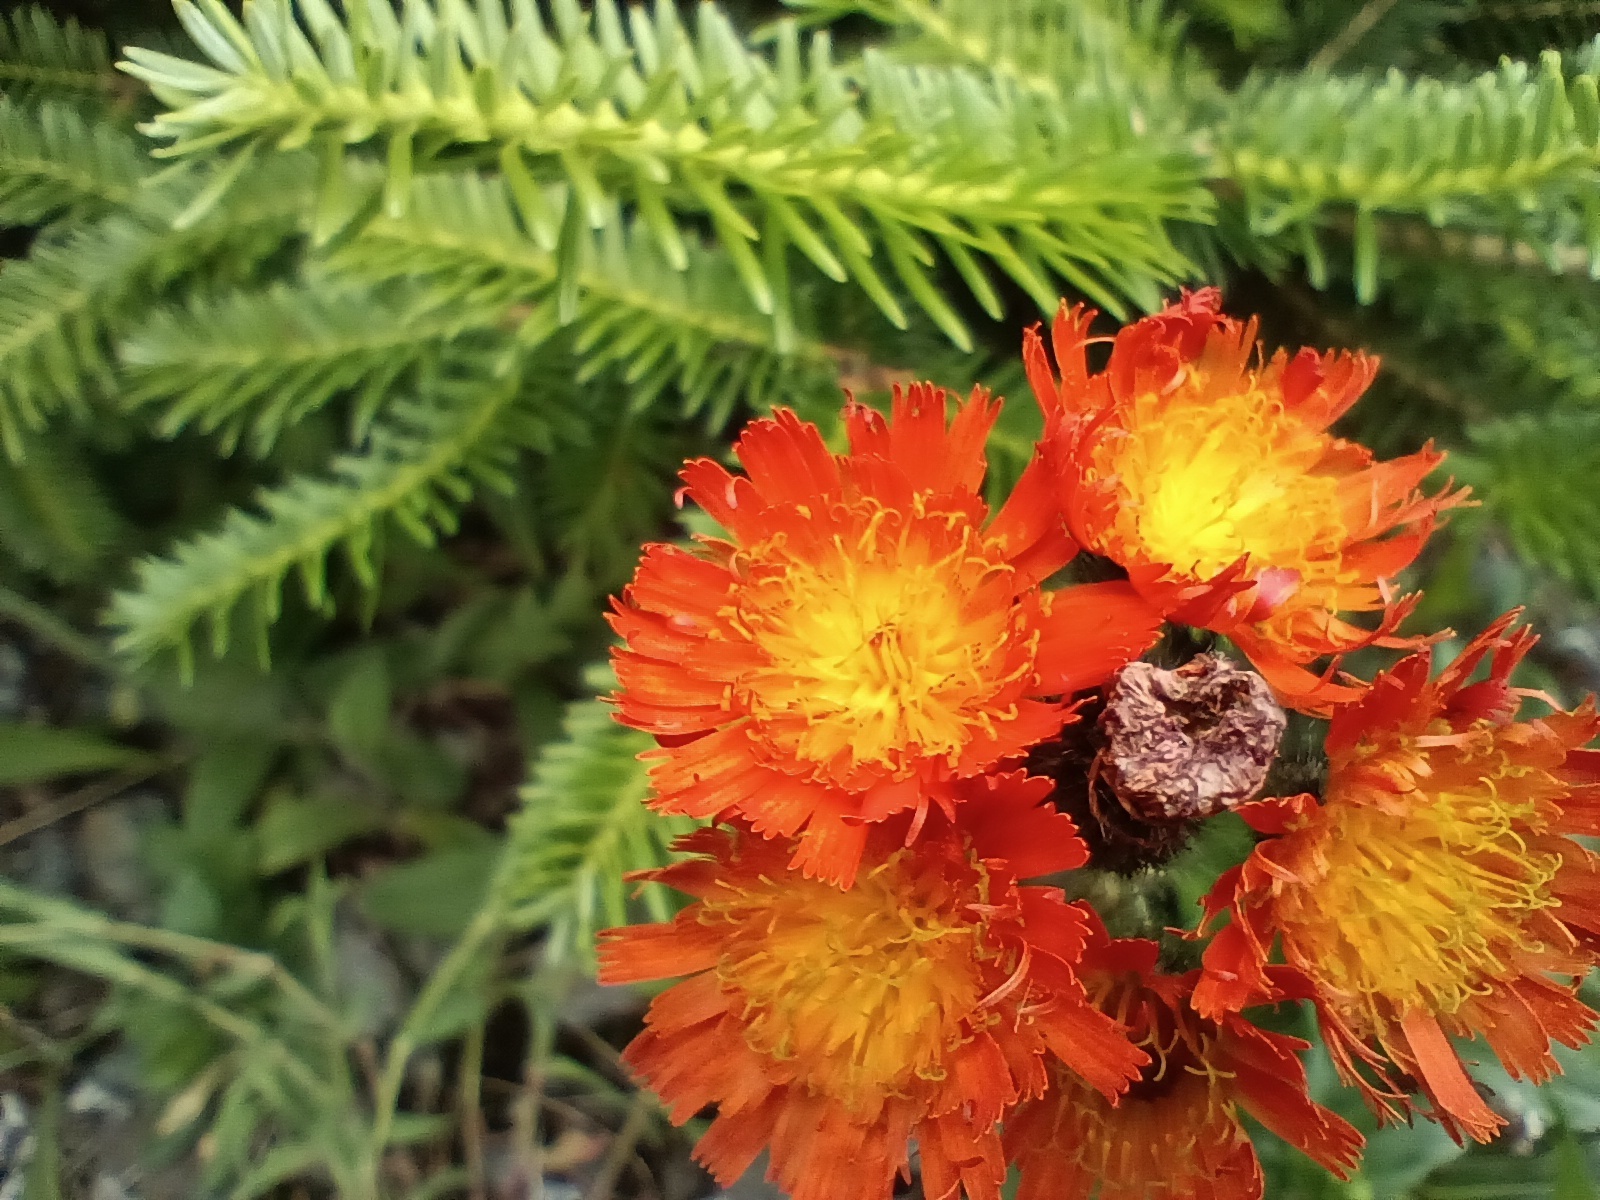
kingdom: Plantae
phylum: Tracheophyta
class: Magnoliopsida
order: Asterales
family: Asteraceae
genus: Pilosella
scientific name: Pilosella aurantiaca
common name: Fox-and-cubs
